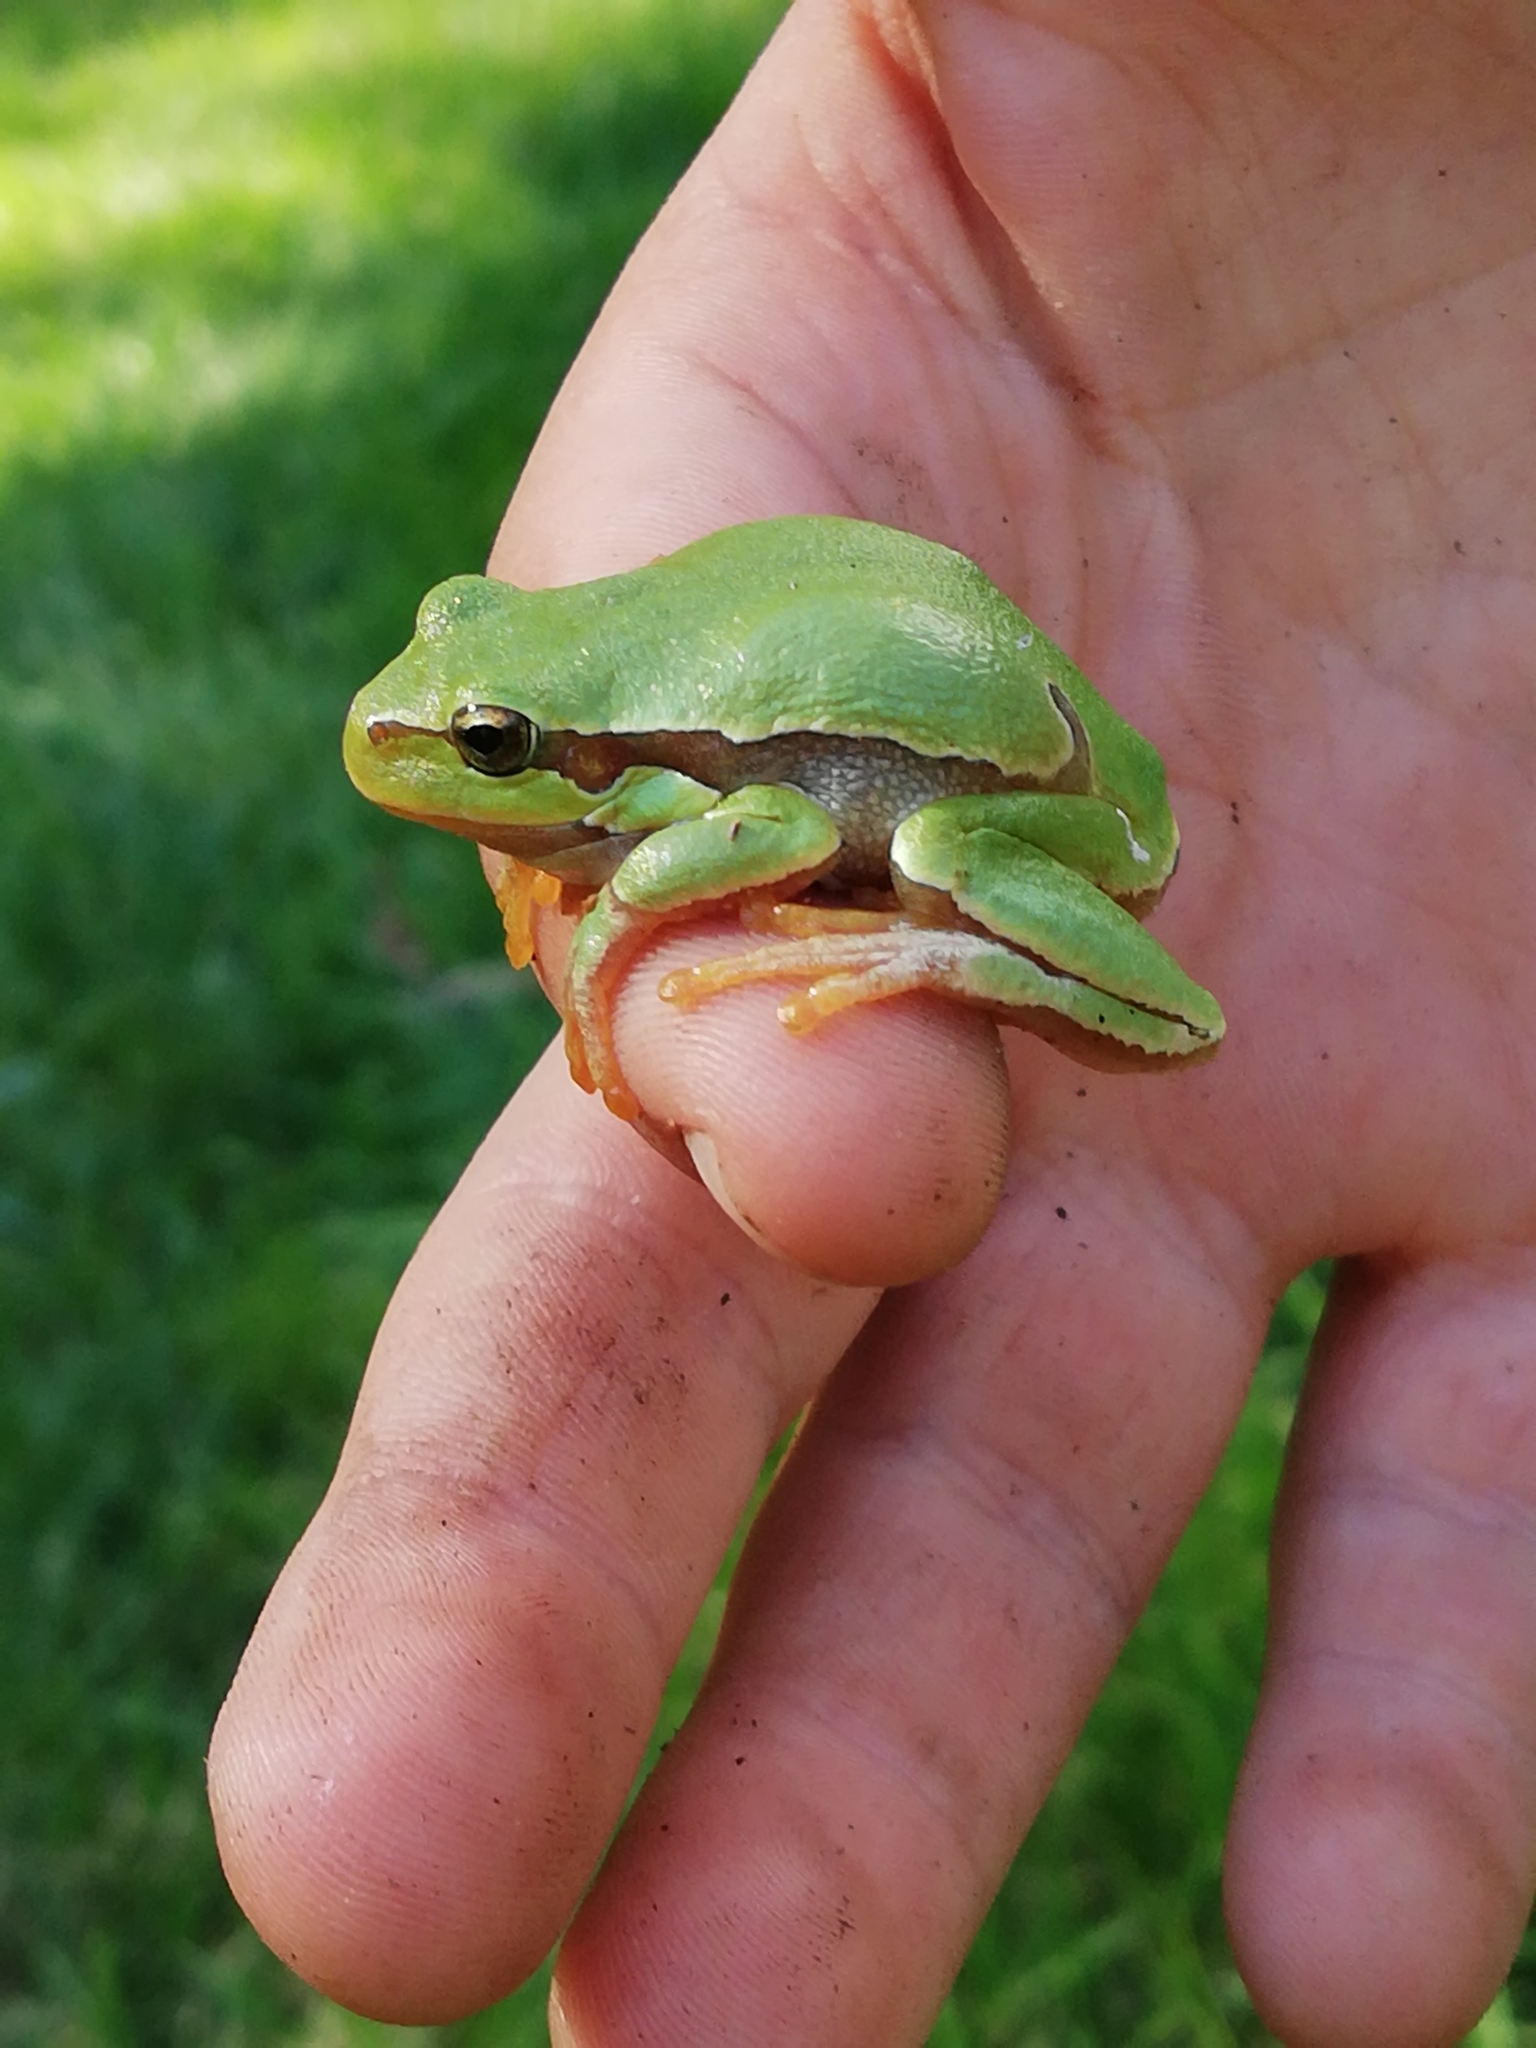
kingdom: Animalia
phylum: Chordata
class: Amphibia
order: Anura
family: Hylidae
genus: Hyla
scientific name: Hyla arborea
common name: Common tree frog
